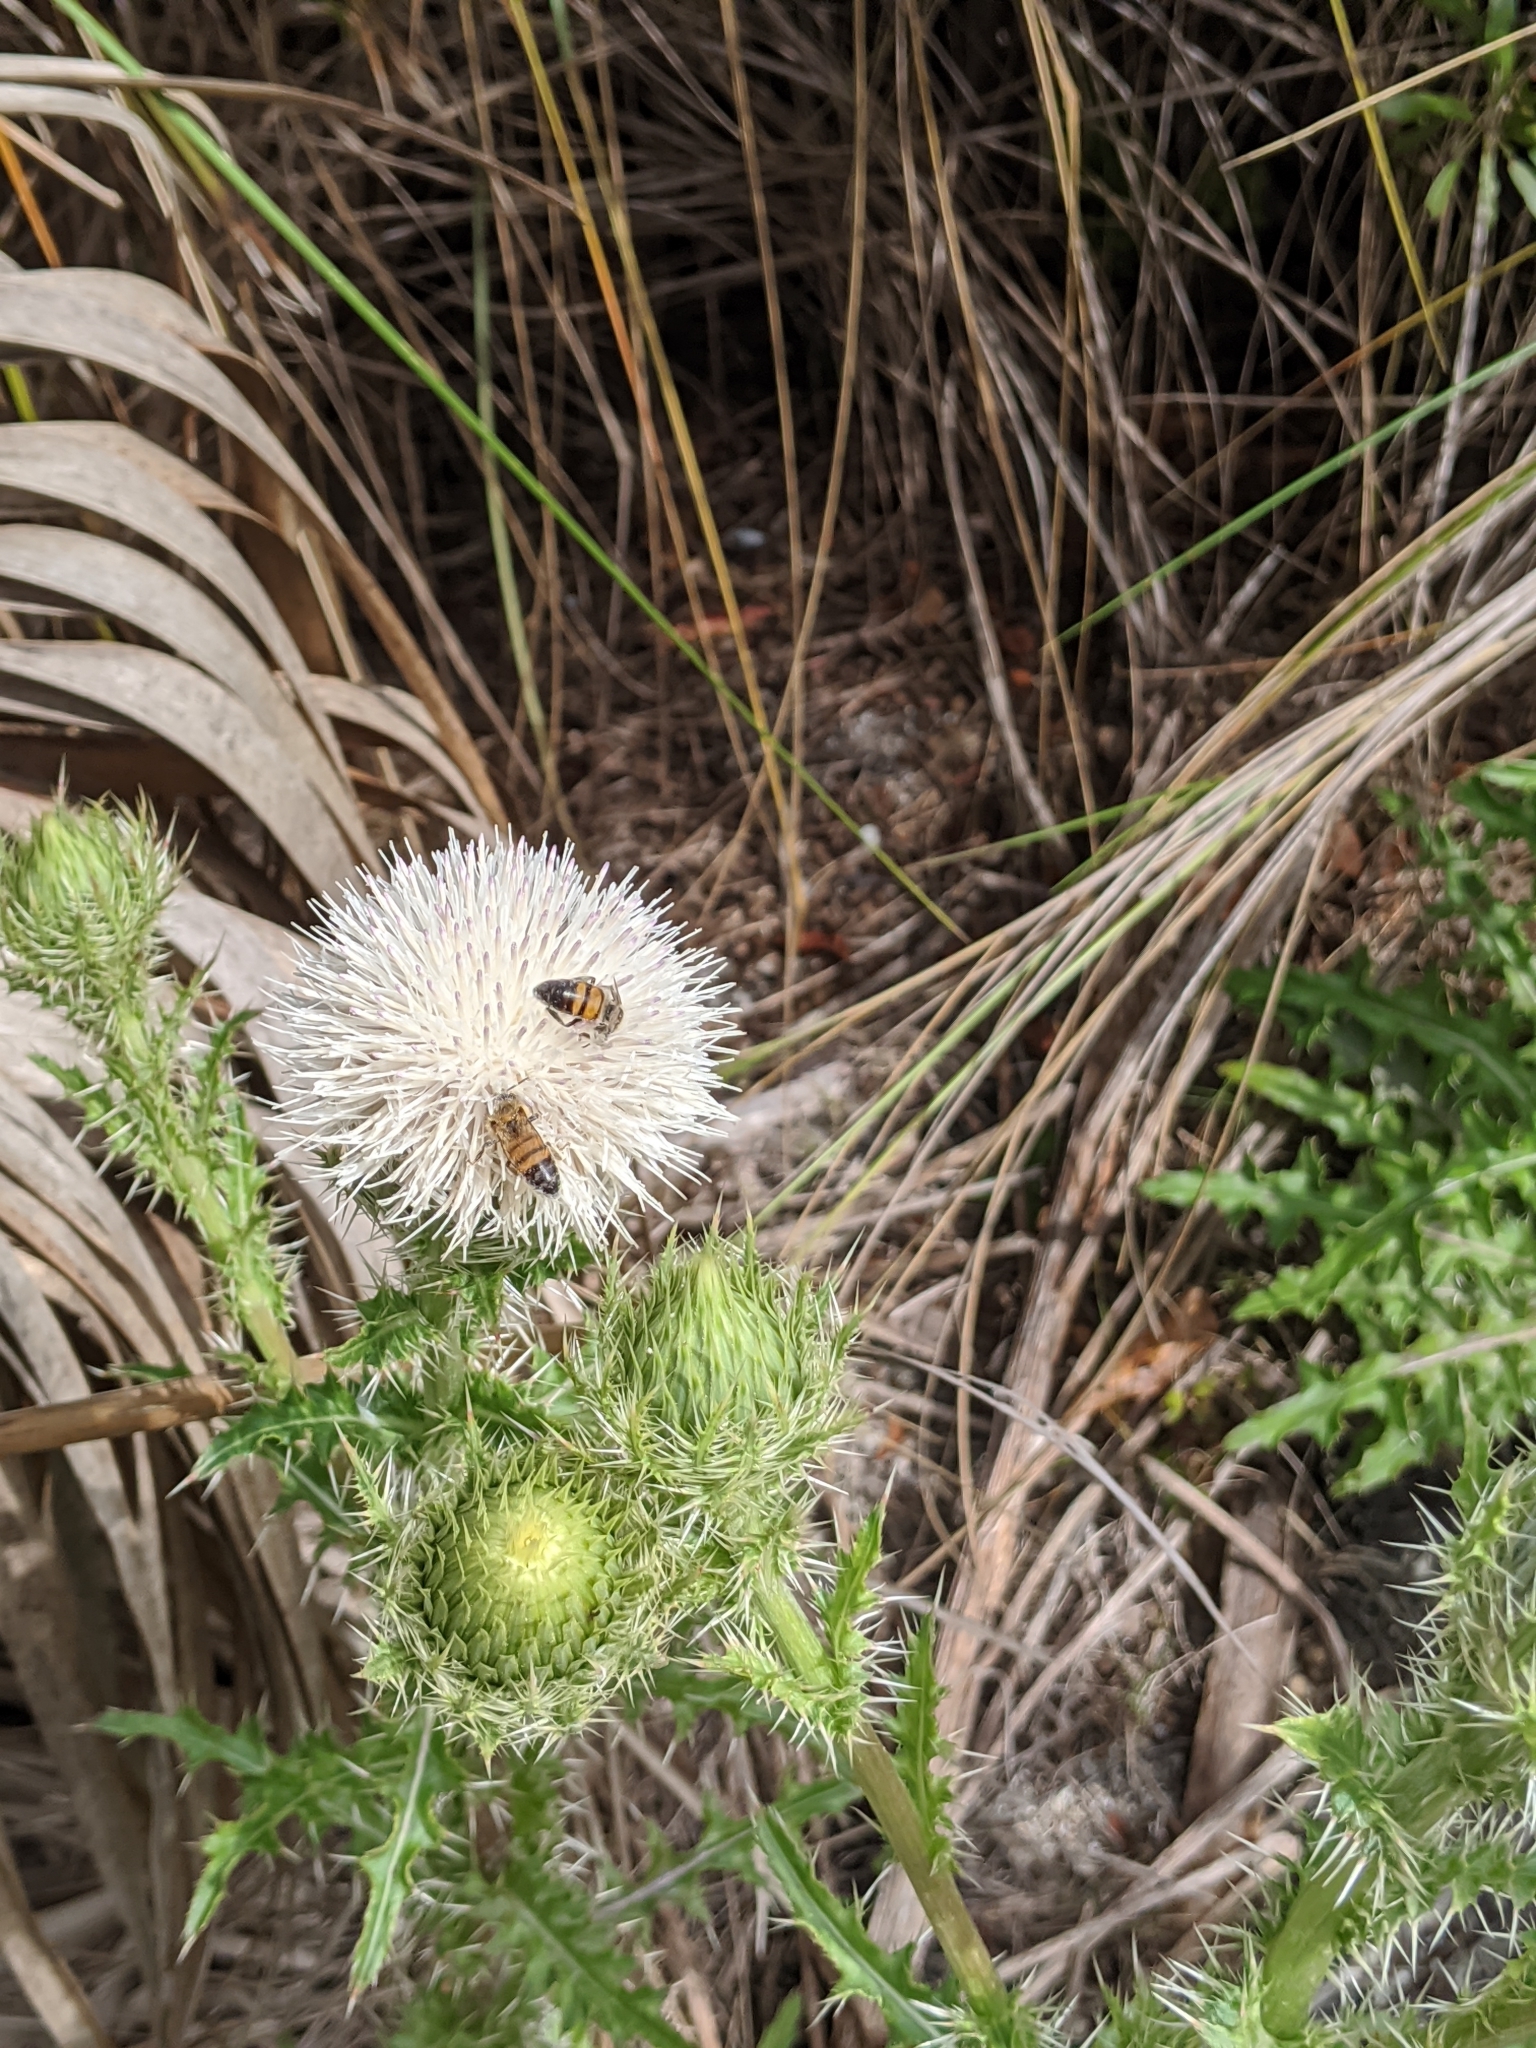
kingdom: Animalia
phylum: Arthropoda
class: Insecta
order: Hymenoptera
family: Apidae
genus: Apis
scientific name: Apis mellifera
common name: Honey bee
